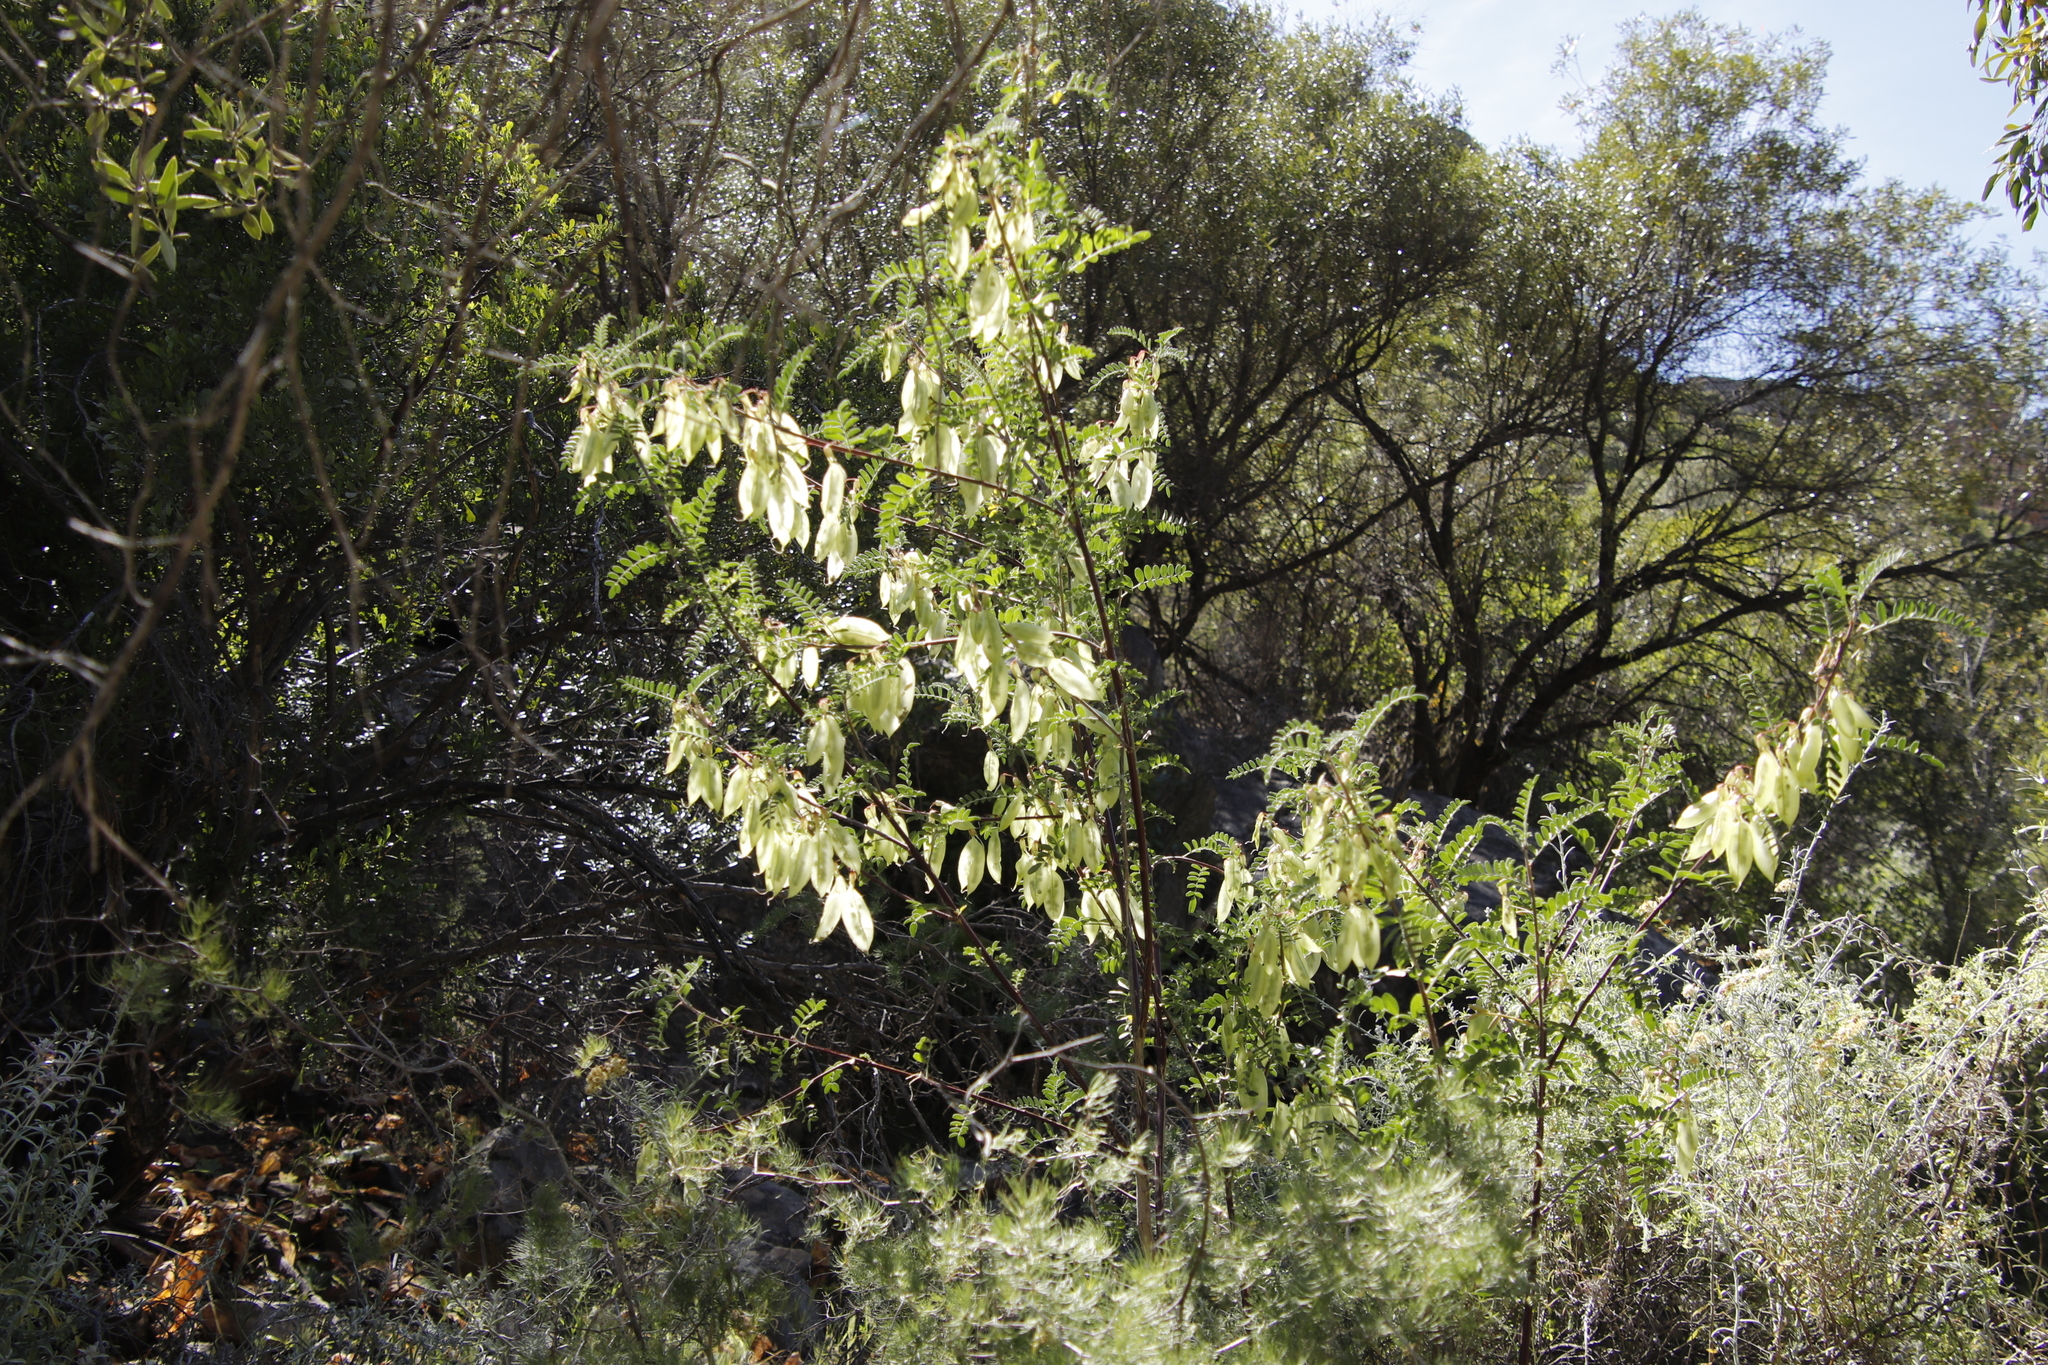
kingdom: Plantae
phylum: Tracheophyta
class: Magnoliopsida
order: Fabales
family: Fabaceae
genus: Lessertia
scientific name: Lessertia frutescens
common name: Balloon-pea
